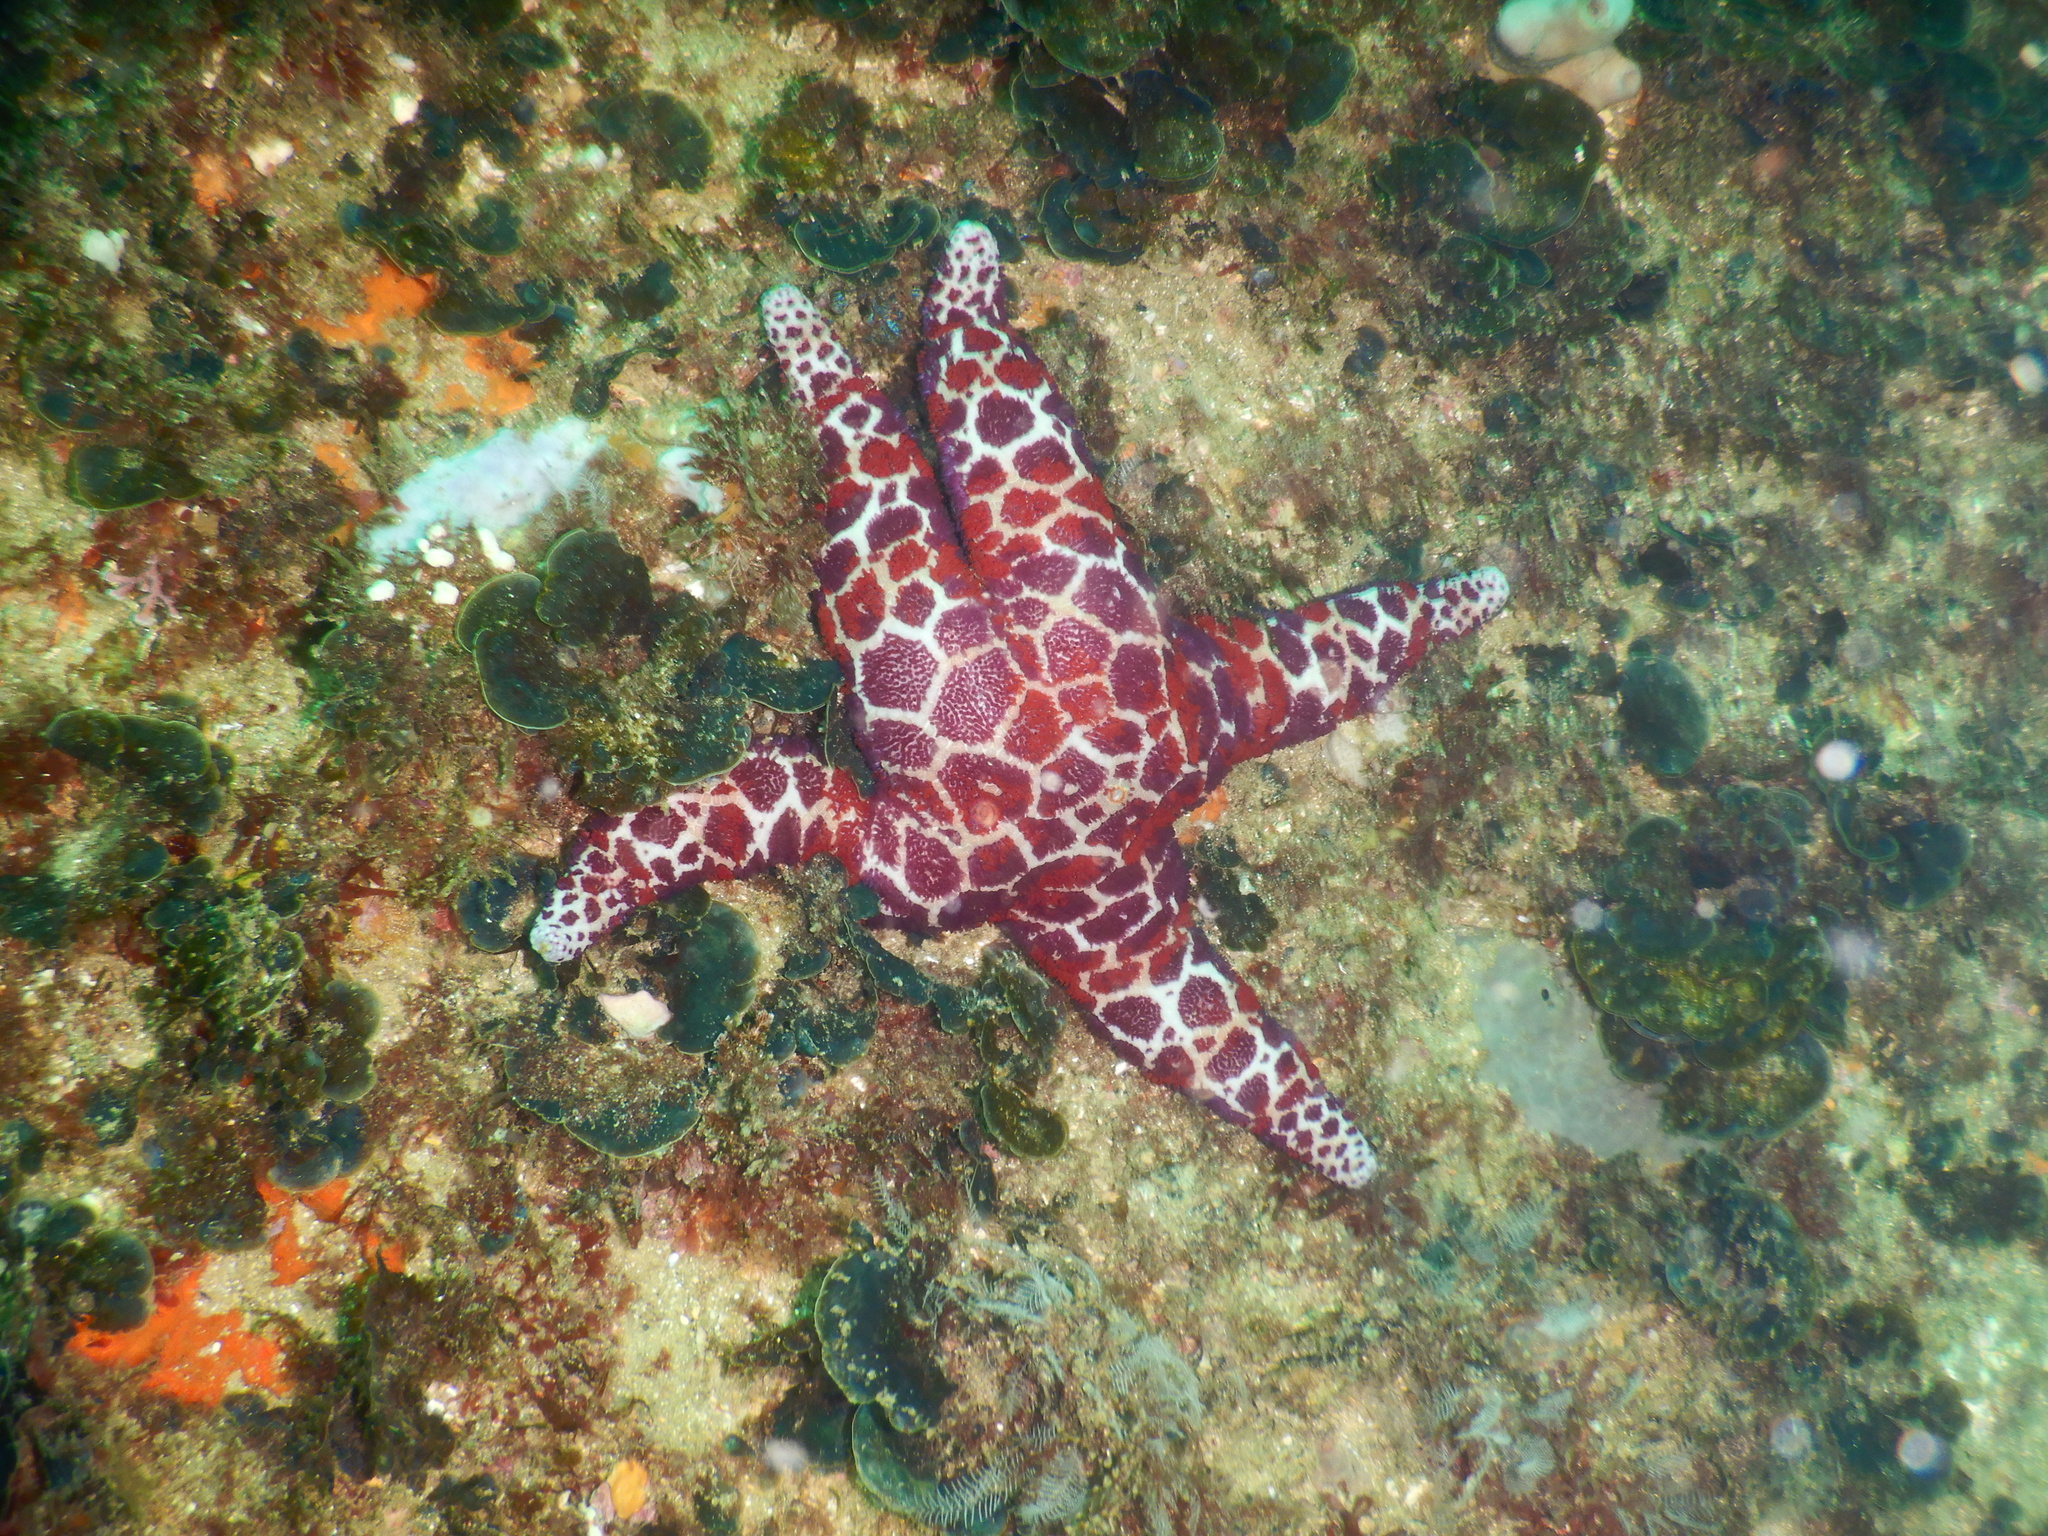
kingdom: Animalia
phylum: Echinodermata
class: Asteroidea
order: Spinulosida
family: Echinasteridae
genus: Plectaster
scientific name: Plectaster decanus
